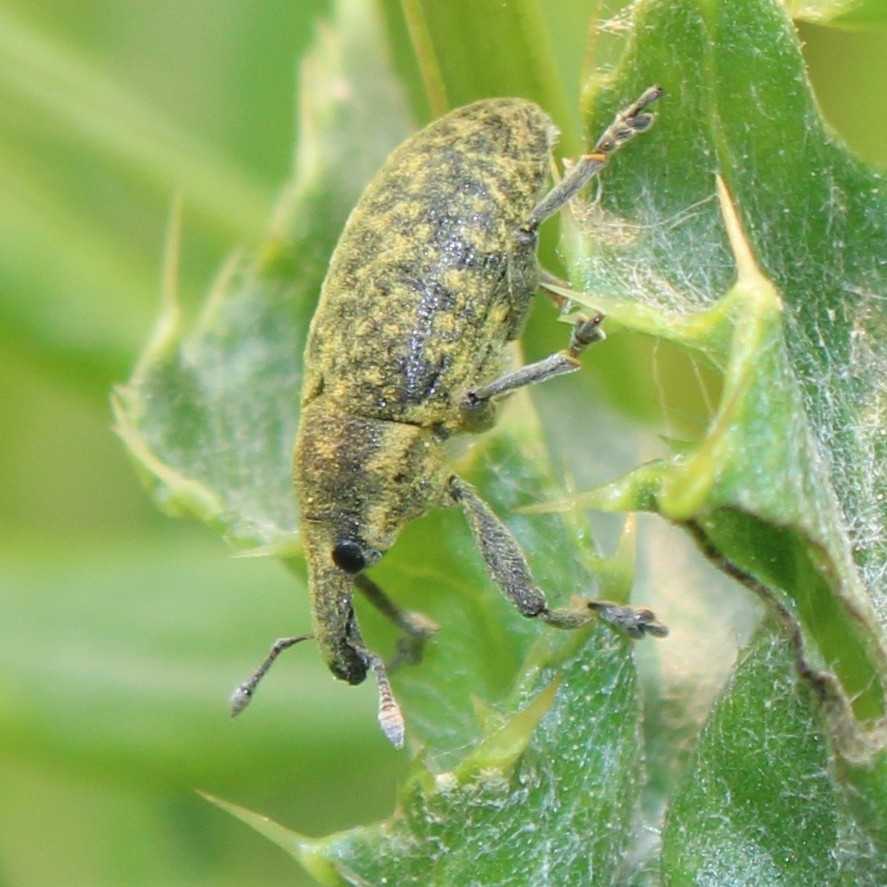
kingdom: Animalia
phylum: Arthropoda
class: Insecta
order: Coleoptera
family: Curculionidae
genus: Larinus
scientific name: Larinus carlinae
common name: Weevil
